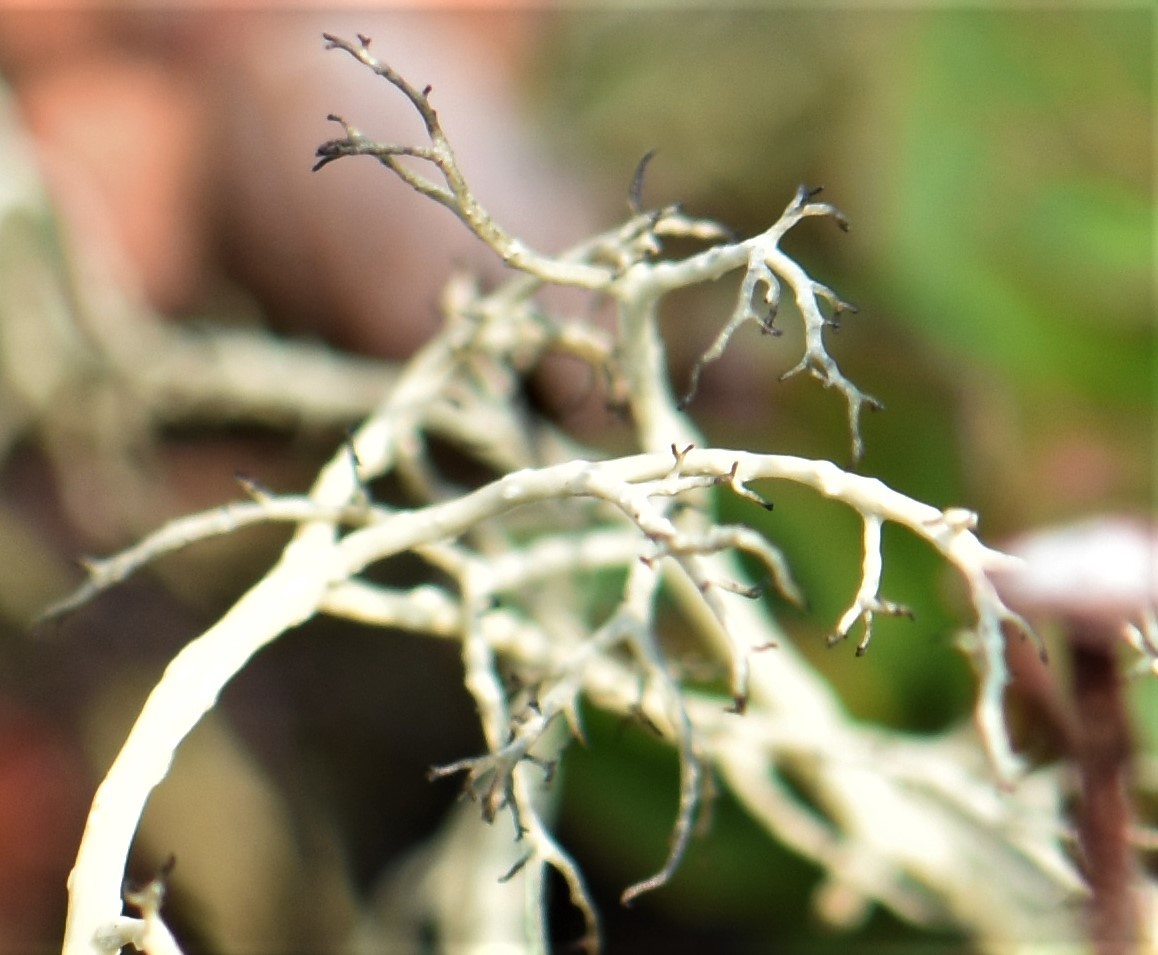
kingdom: Fungi
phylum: Ascomycota
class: Lecanoromycetes
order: Lecanorales
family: Parmeliaceae
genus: Alectoria
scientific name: Alectoria ochroleuca
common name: Alpine sulphur-tresses
